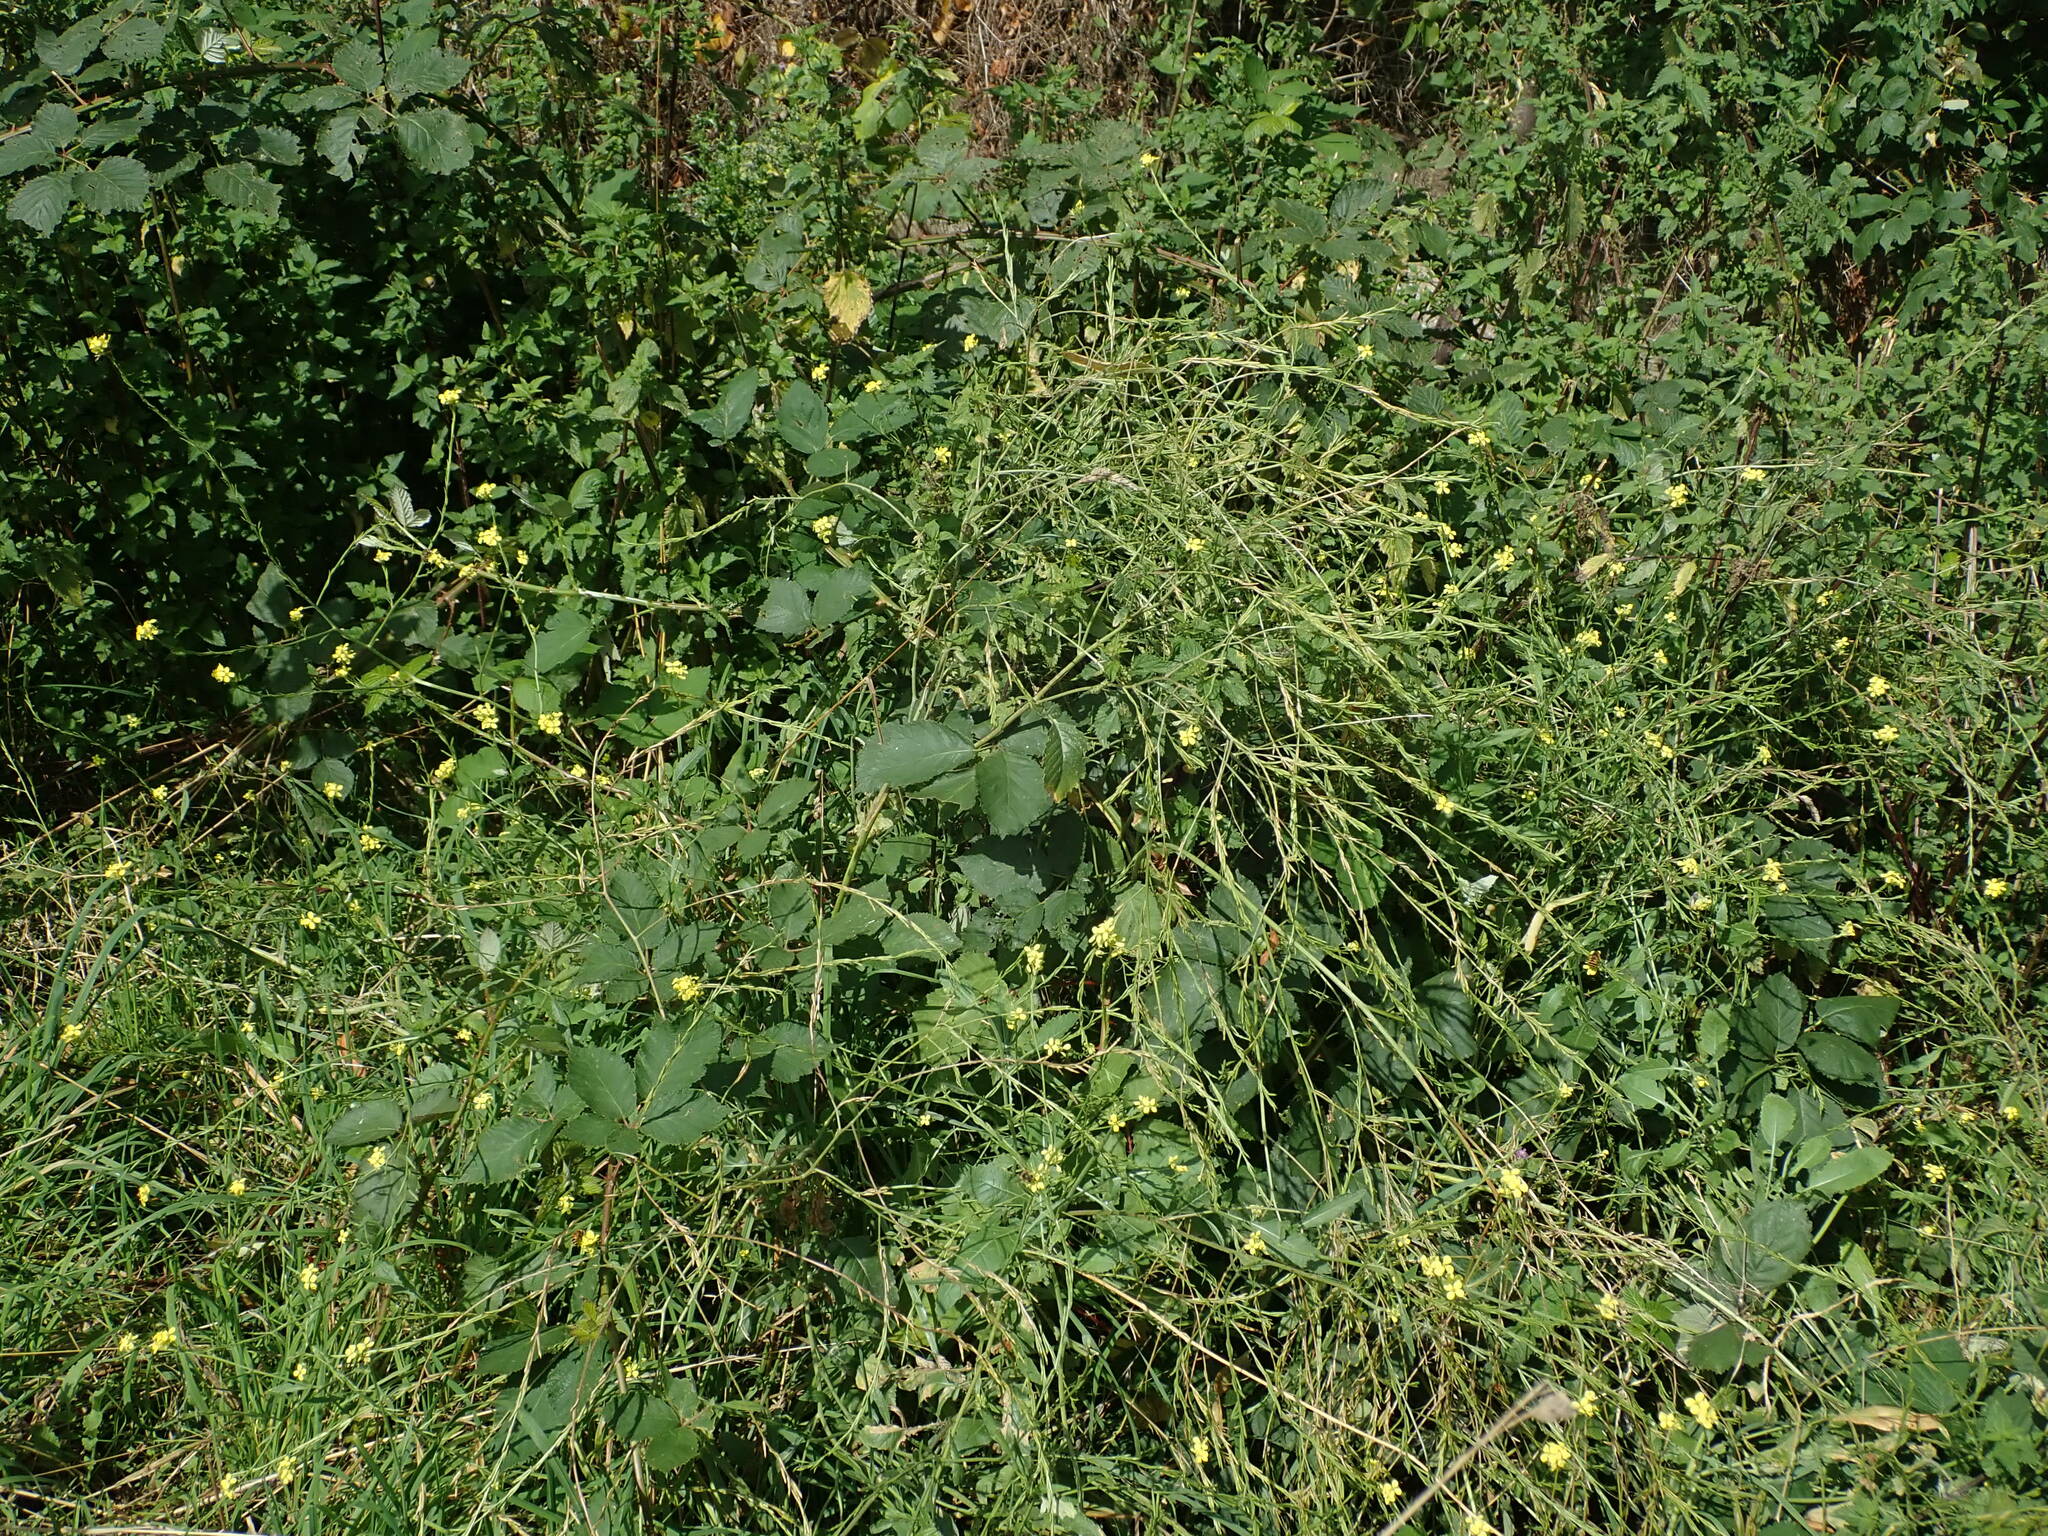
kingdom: Plantae
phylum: Tracheophyta
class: Magnoliopsida
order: Brassicales
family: Brassicaceae
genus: Hirschfeldia
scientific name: Hirschfeldia incana
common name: Hoary mustard
